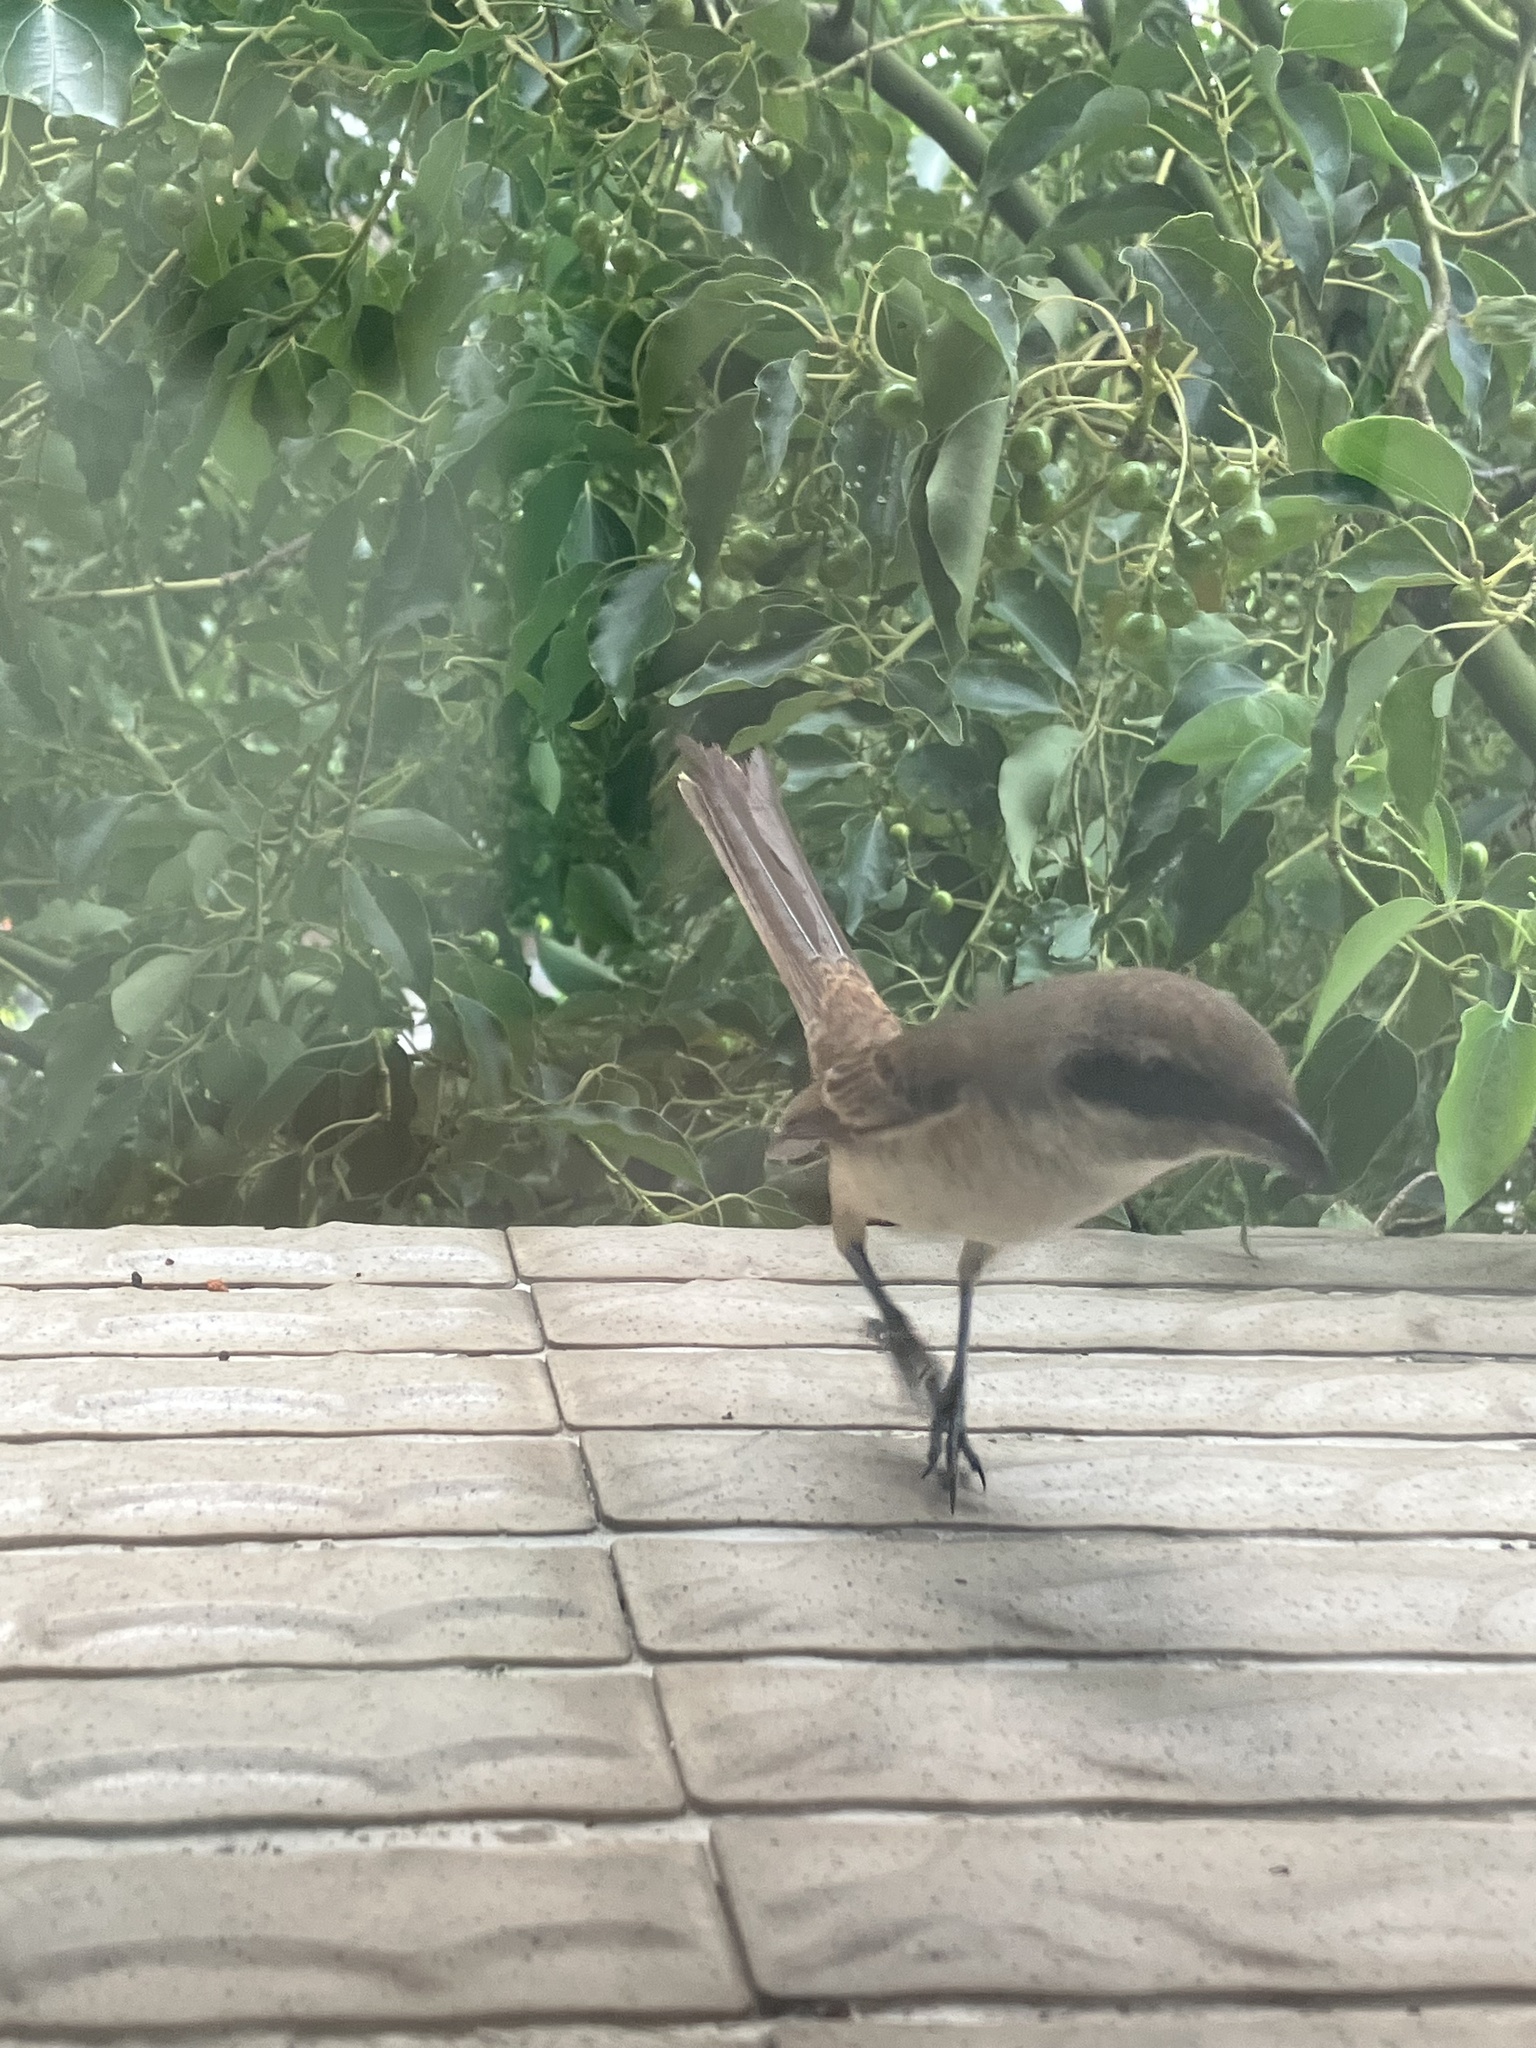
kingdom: Animalia
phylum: Chordata
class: Aves
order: Passeriformes
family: Laniidae
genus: Lanius
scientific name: Lanius cristatus
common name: Brown shrike
